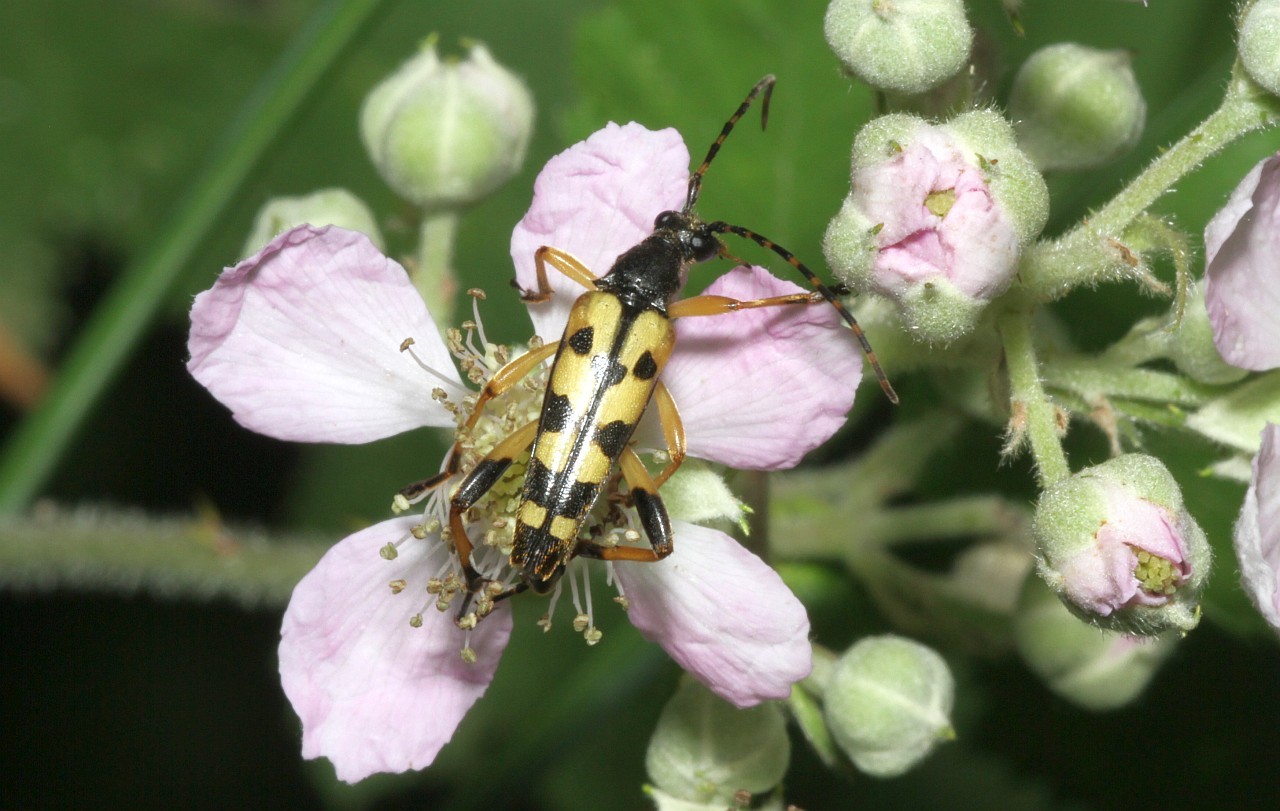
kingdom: Animalia
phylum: Arthropoda
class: Insecta
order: Coleoptera
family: Cerambycidae
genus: Rutpela
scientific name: Rutpela maculata
